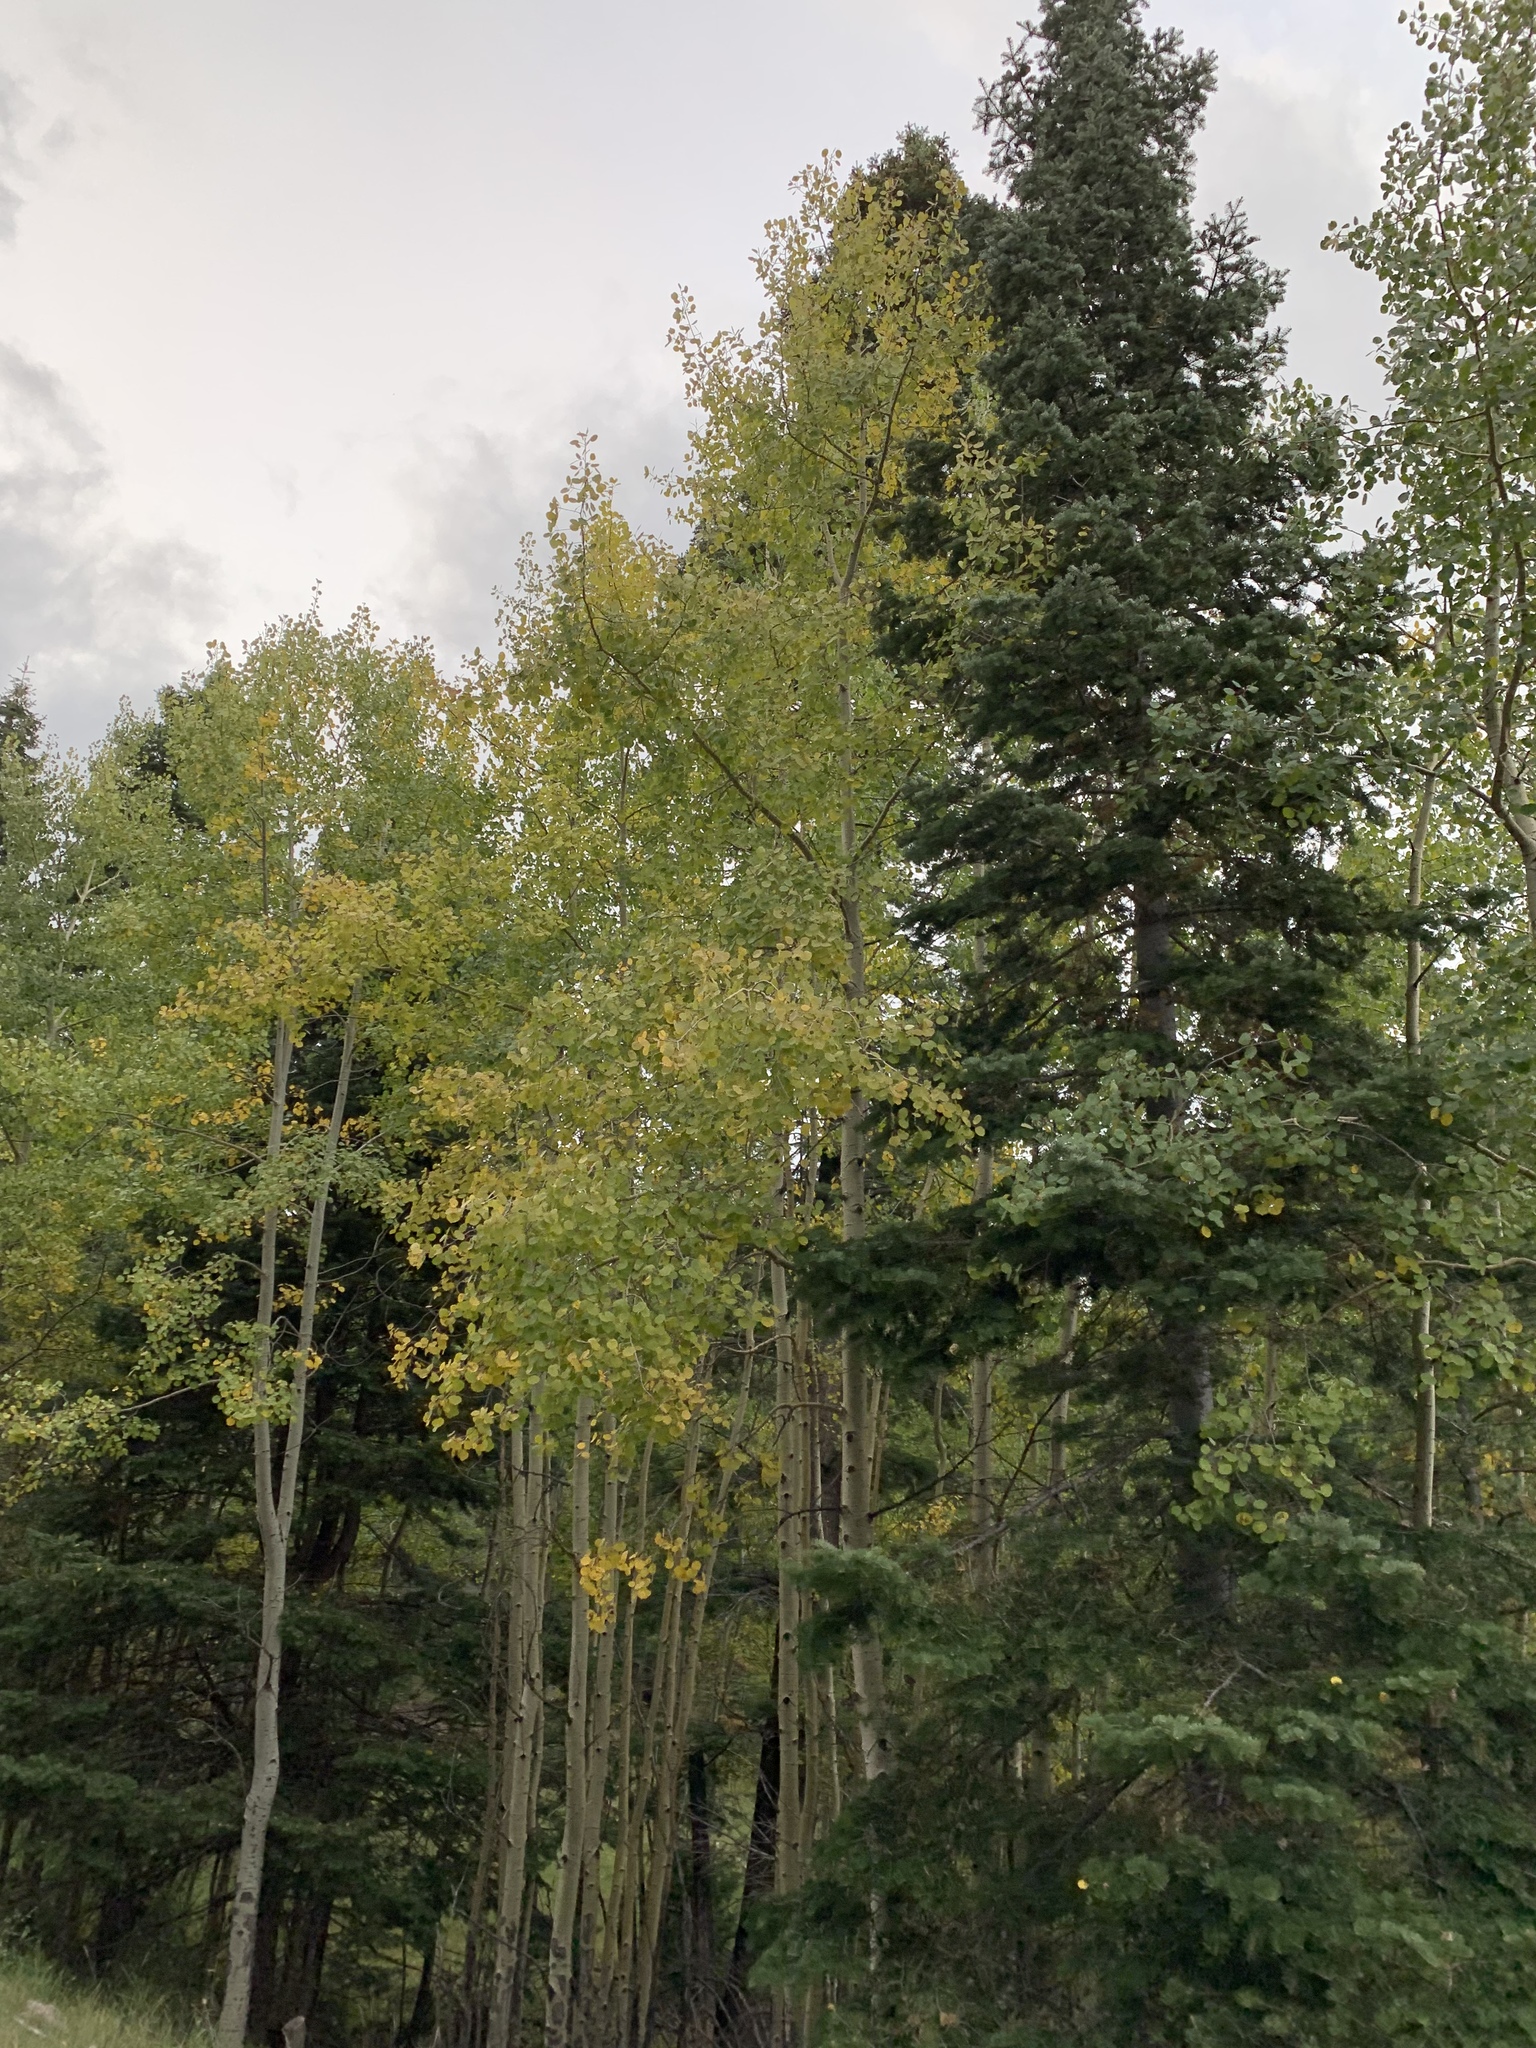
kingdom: Plantae
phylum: Tracheophyta
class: Magnoliopsida
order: Malpighiales
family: Salicaceae
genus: Populus
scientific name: Populus tremuloides
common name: Quaking aspen
